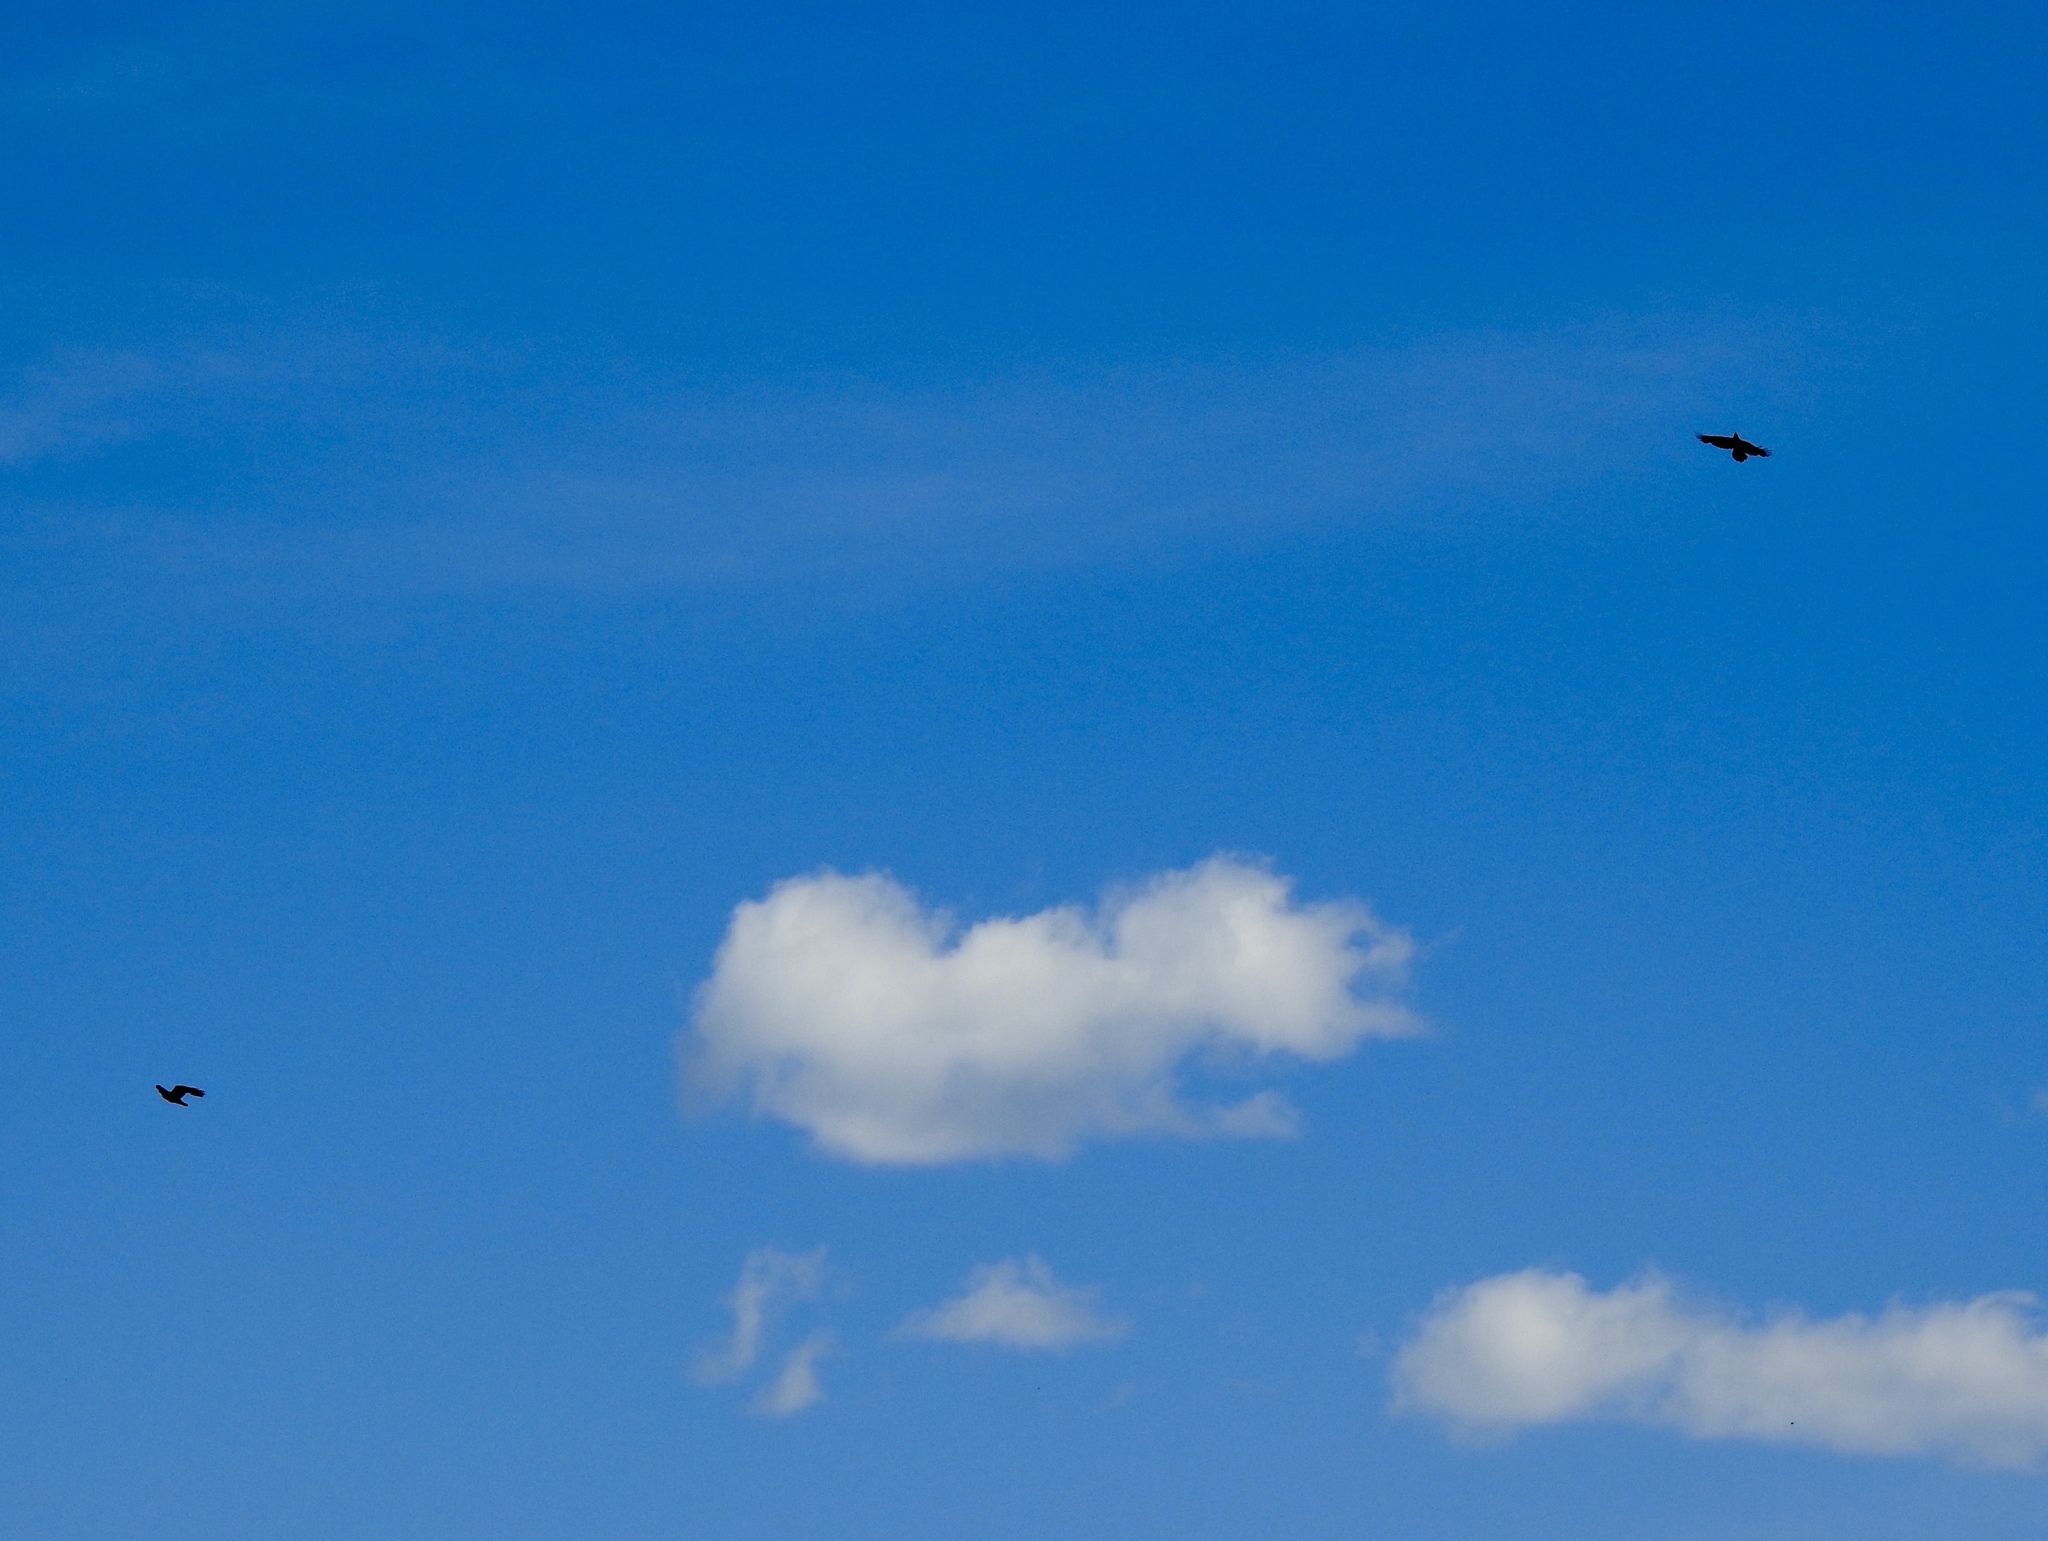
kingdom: Animalia
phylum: Chordata
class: Aves
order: Passeriformes
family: Corvidae
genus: Corvus
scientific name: Corvus corax
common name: Common raven
